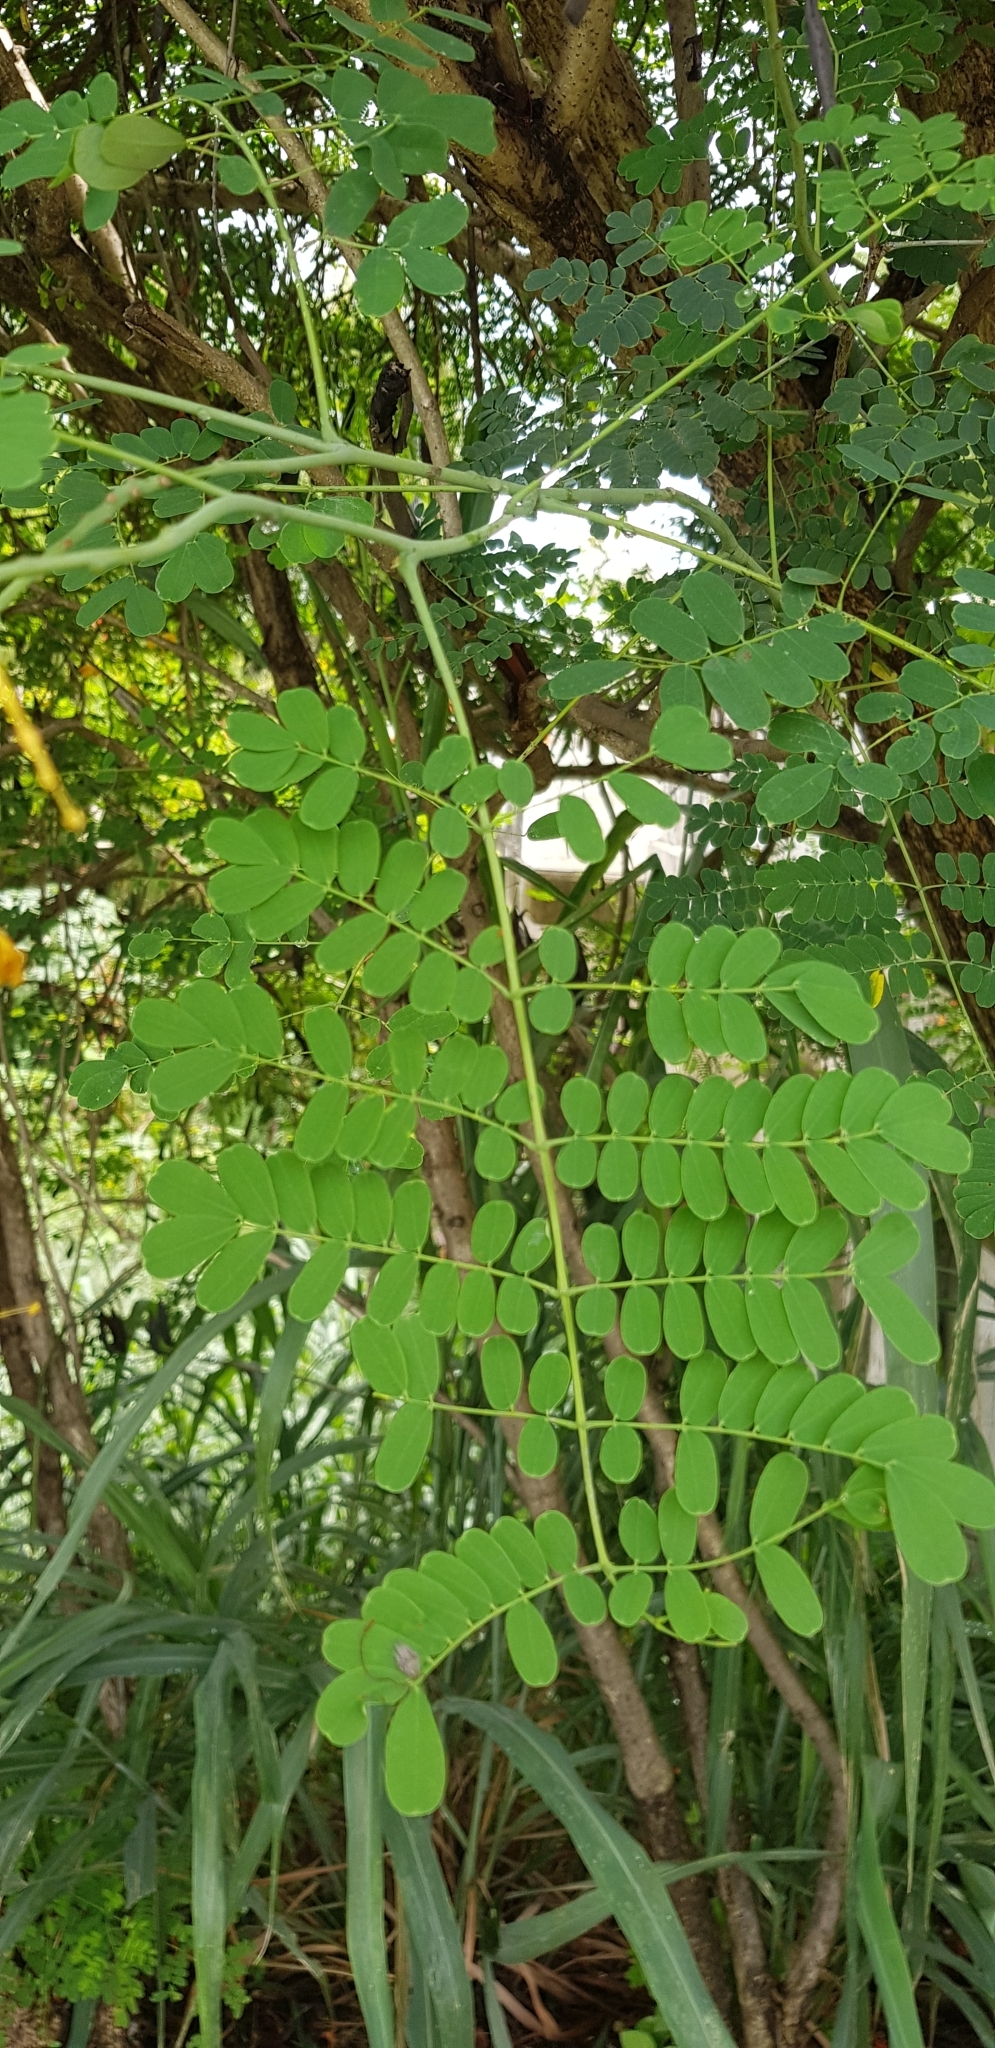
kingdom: Plantae
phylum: Tracheophyta
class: Magnoliopsida
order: Fabales
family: Fabaceae
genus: Caesalpinia
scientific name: Caesalpinia pulcherrima
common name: Pride-of-barbados
